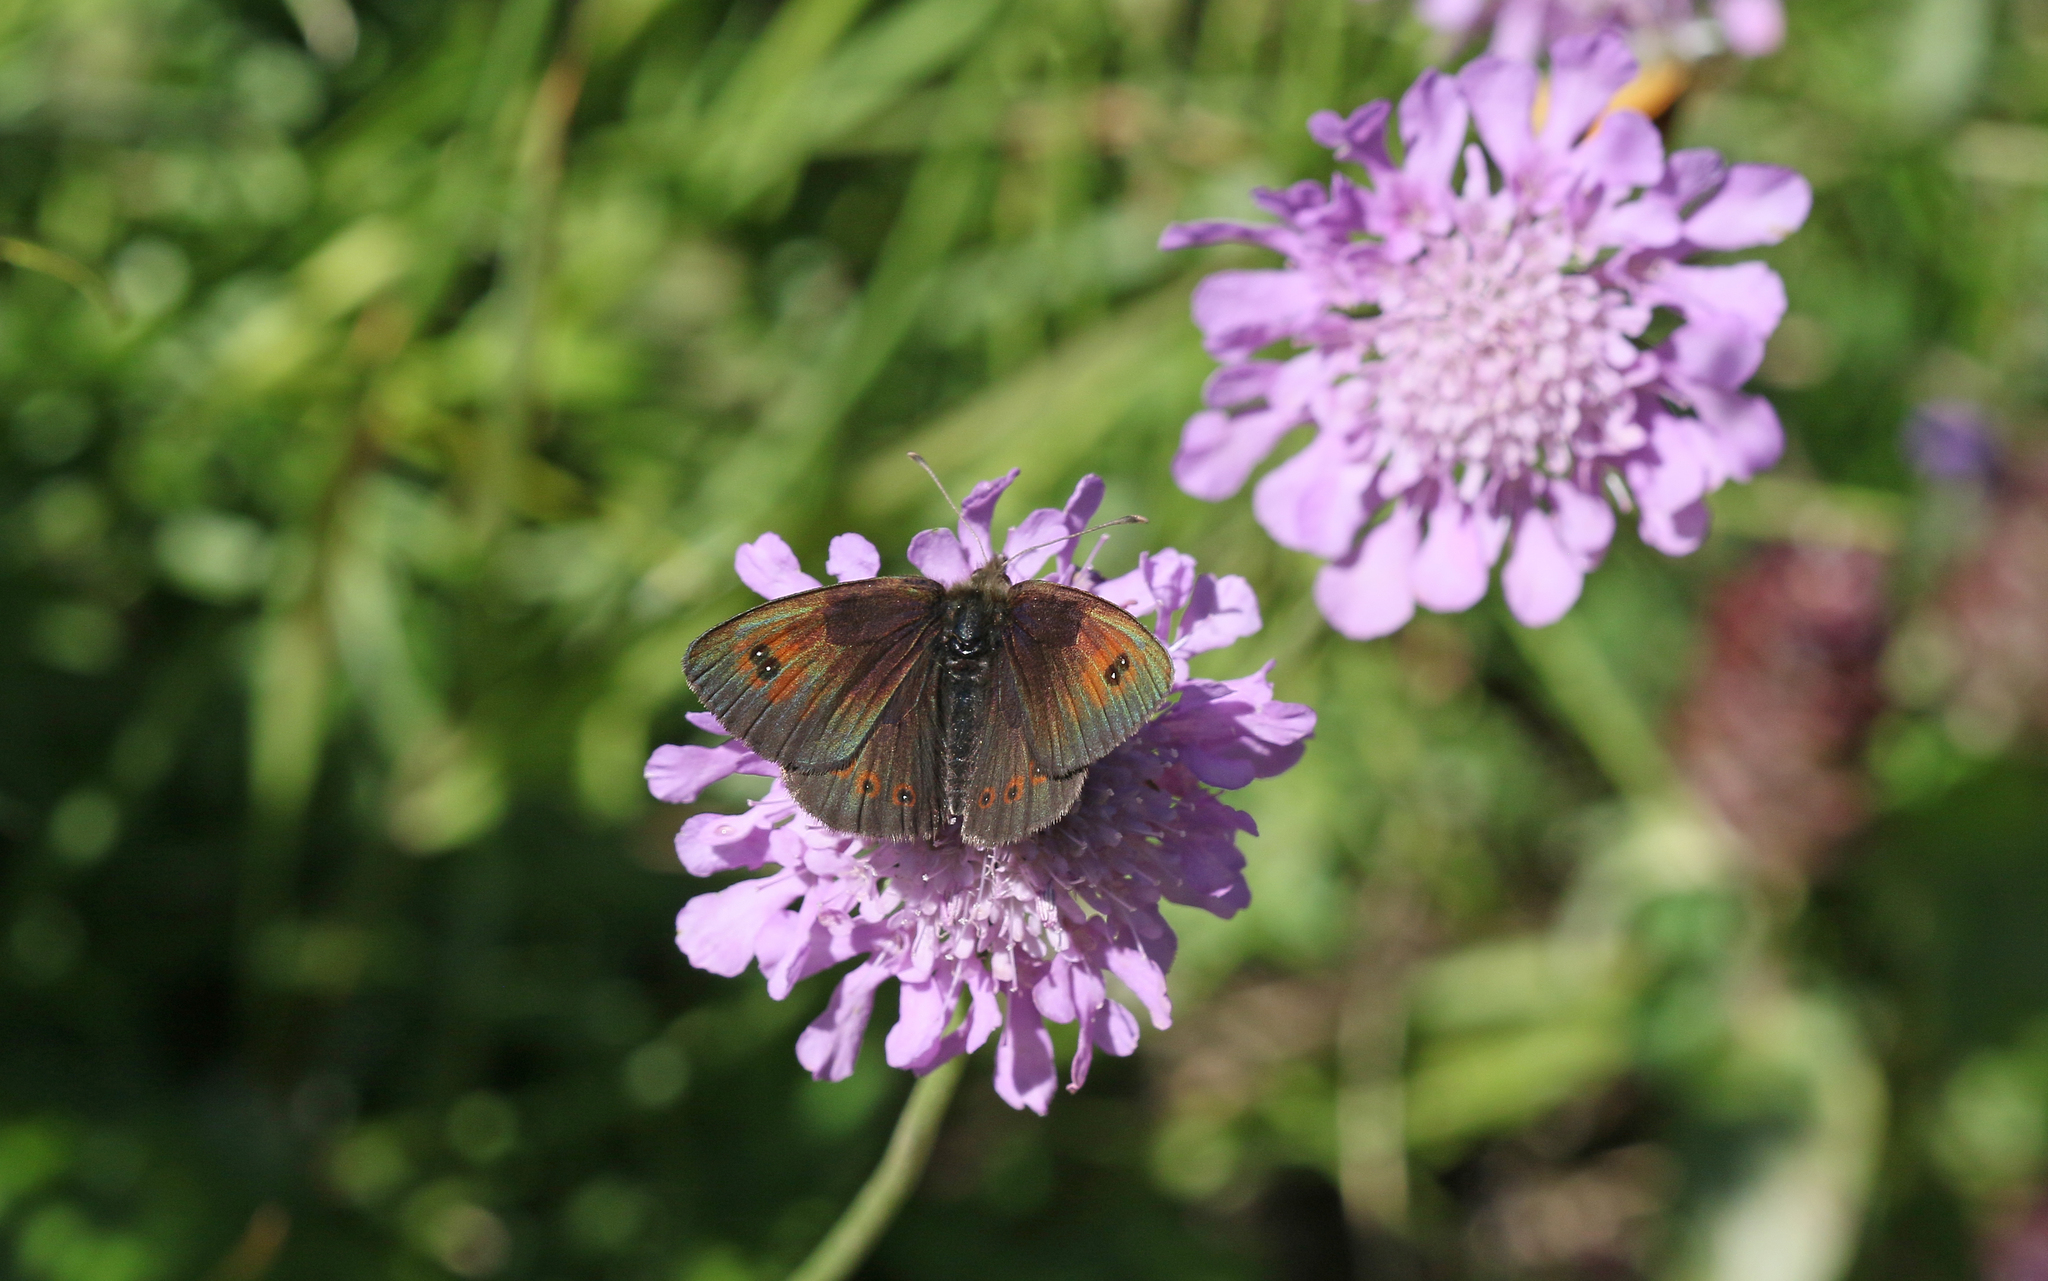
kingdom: Animalia
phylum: Arthropoda
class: Insecta
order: Lepidoptera
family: Nymphalidae
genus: Erebia
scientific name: Erebia cassioides
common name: Common brassy ringlet
